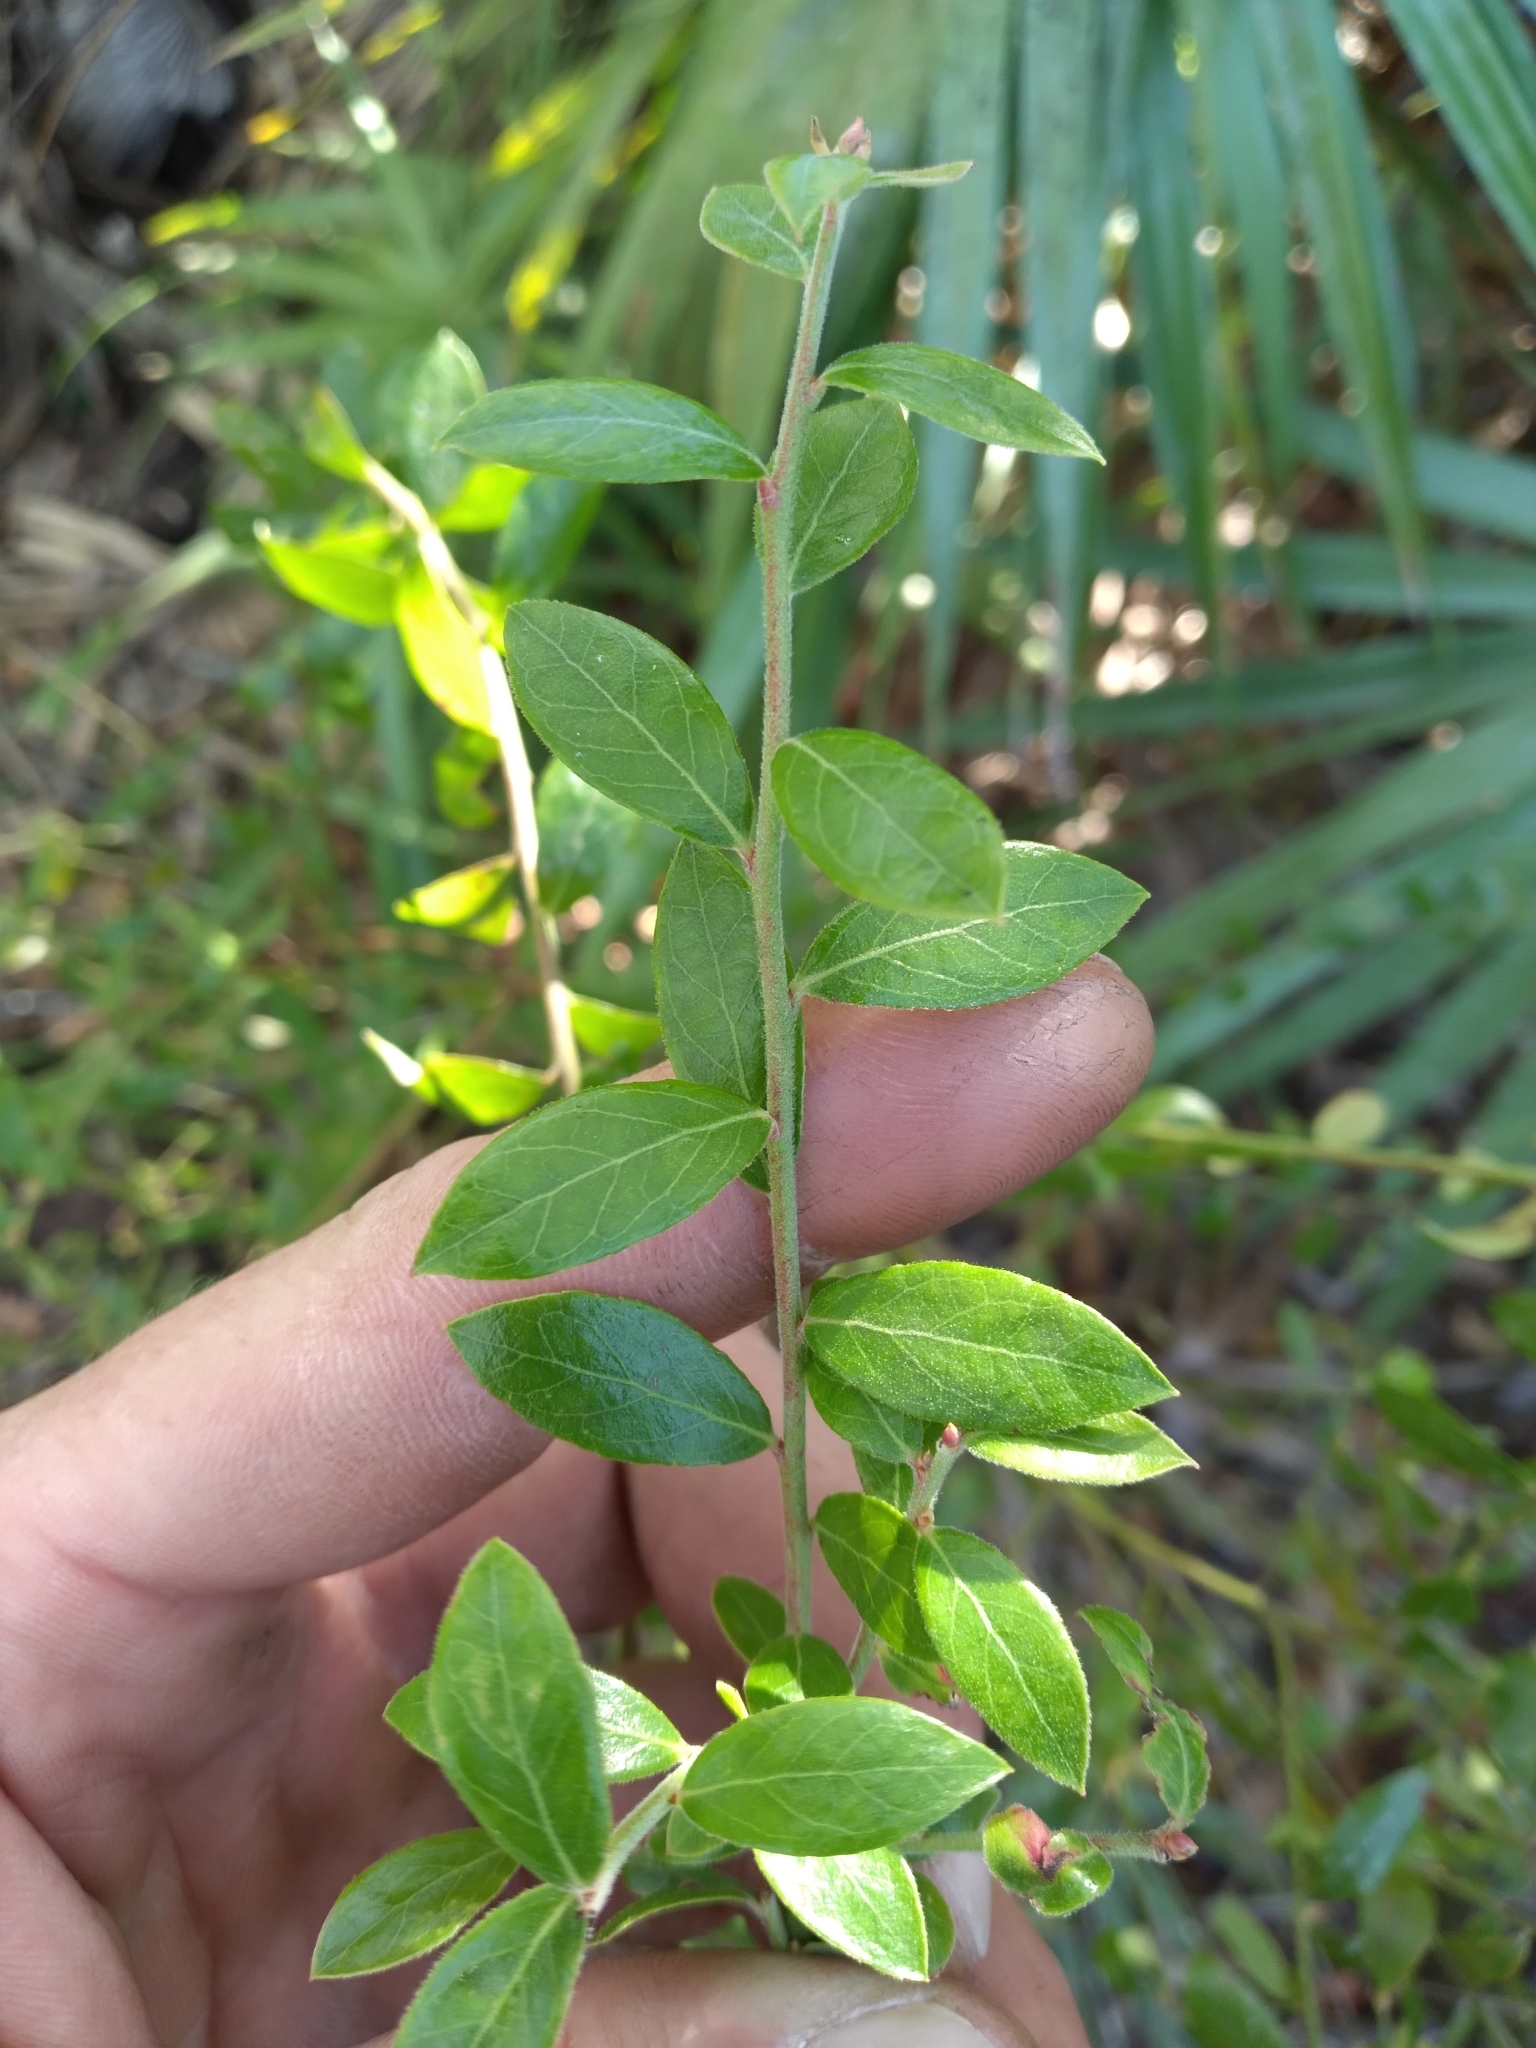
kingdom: Plantae
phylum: Tracheophyta
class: Magnoliopsida
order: Ericales
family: Ericaceae
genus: Vaccinium
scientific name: Vaccinium corymbosum
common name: Blueberry
